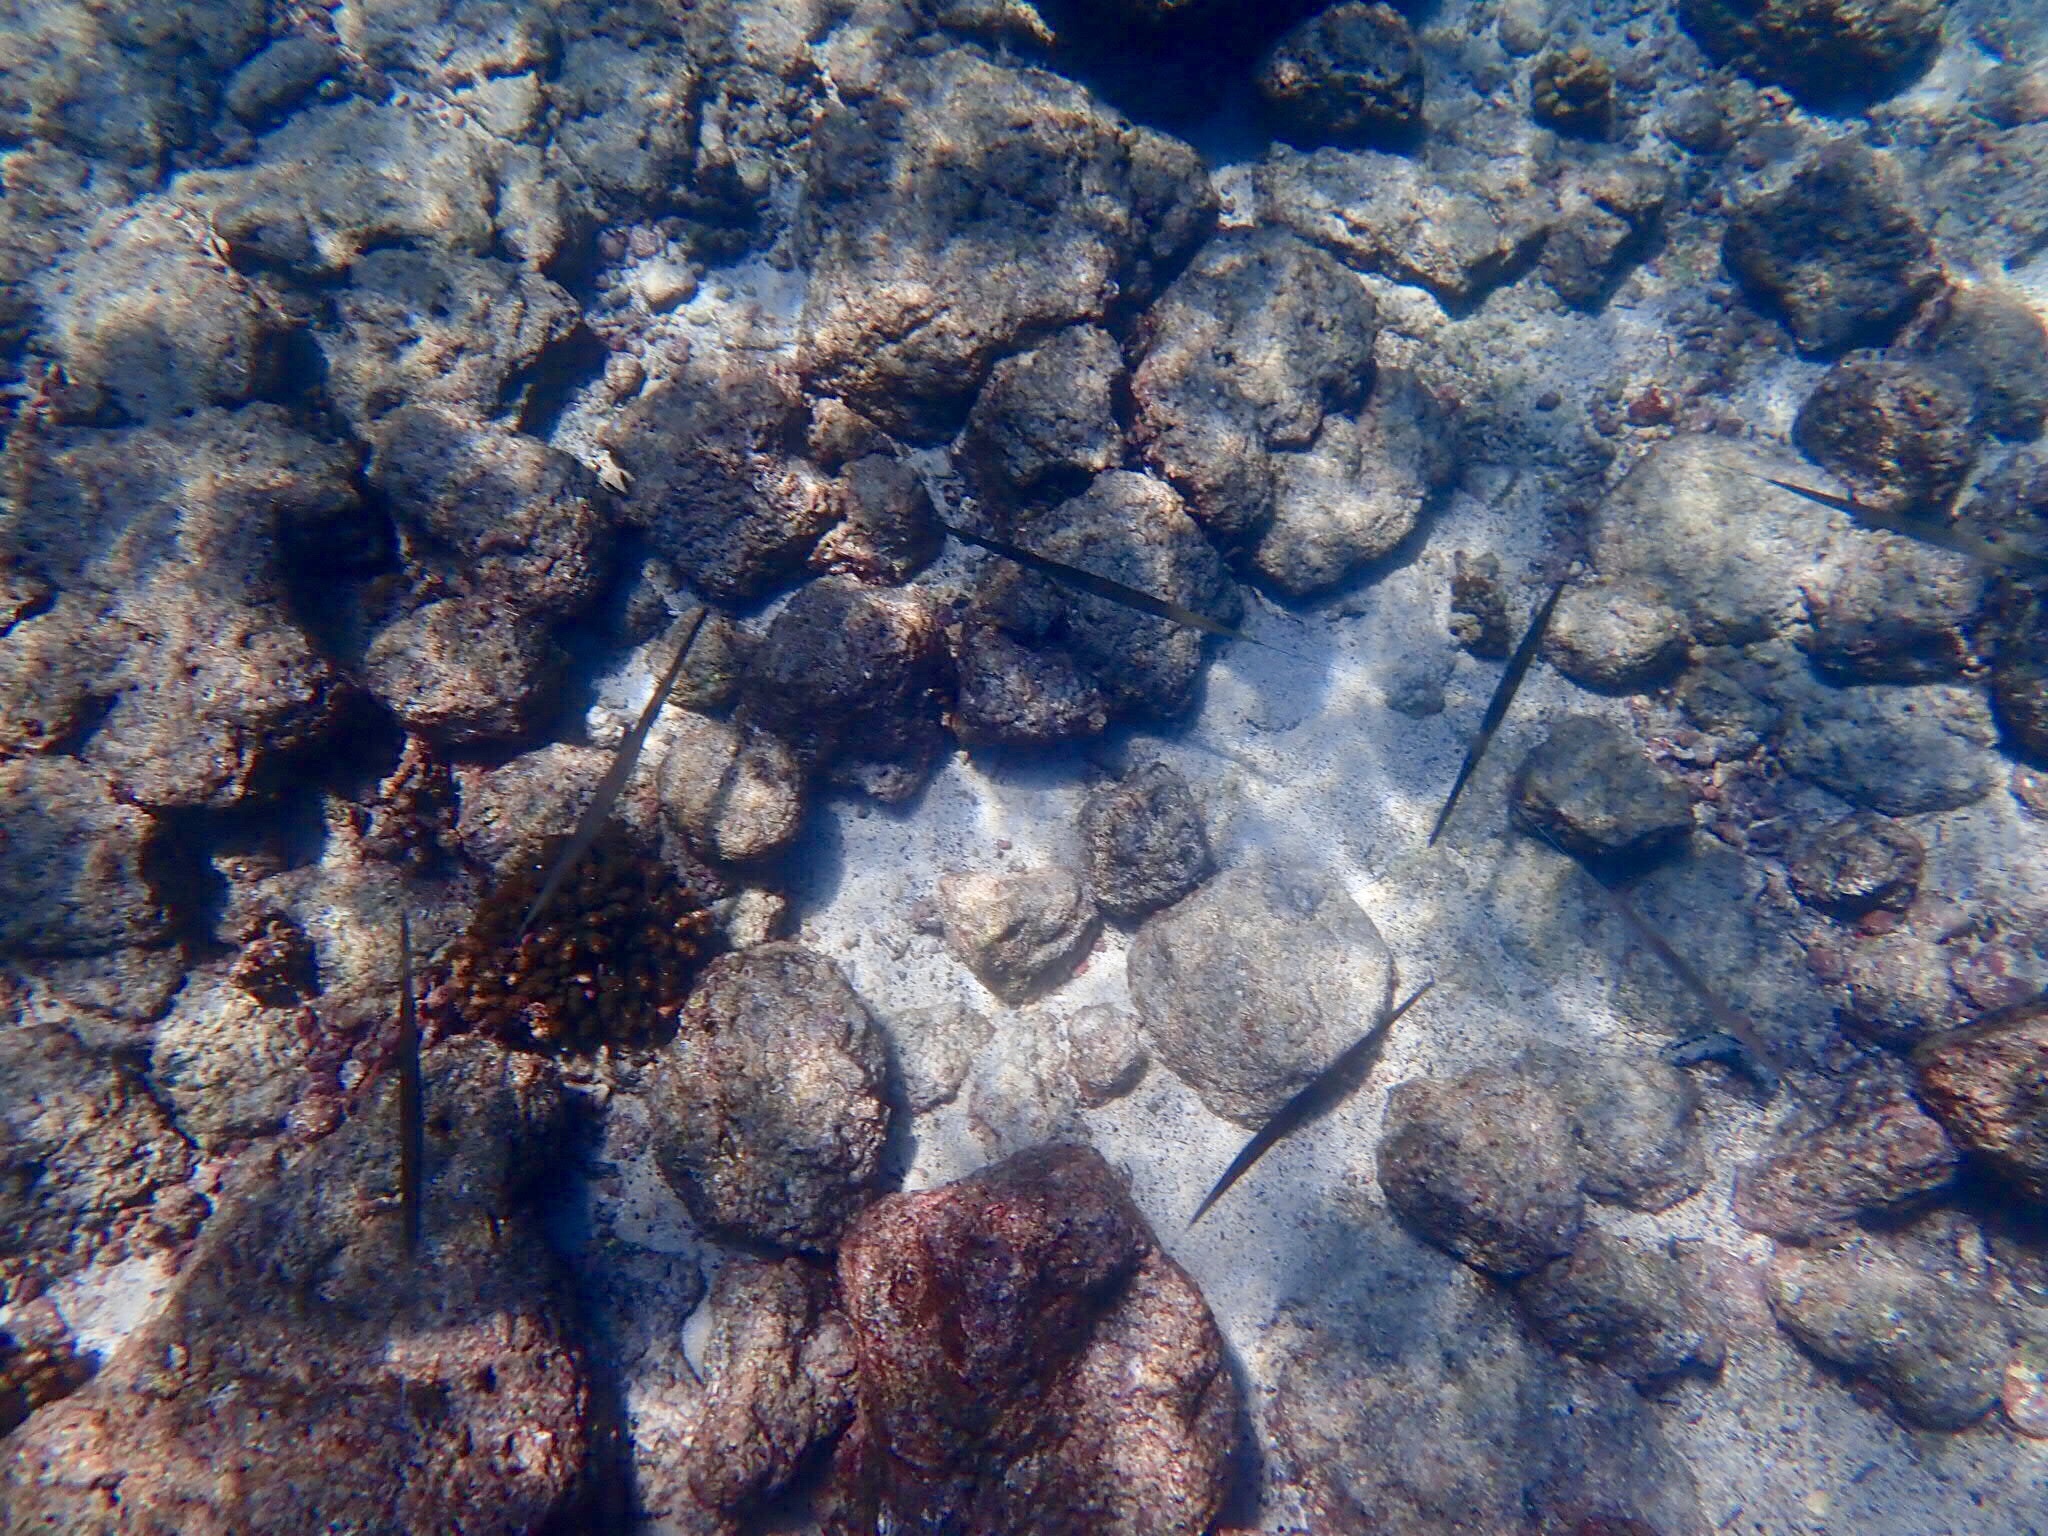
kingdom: Animalia
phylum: Chordata
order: Syngnathiformes
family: Fistulariidae
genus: Fistularia
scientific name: Fistularia commersonii
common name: Bluespotted cornetfish
